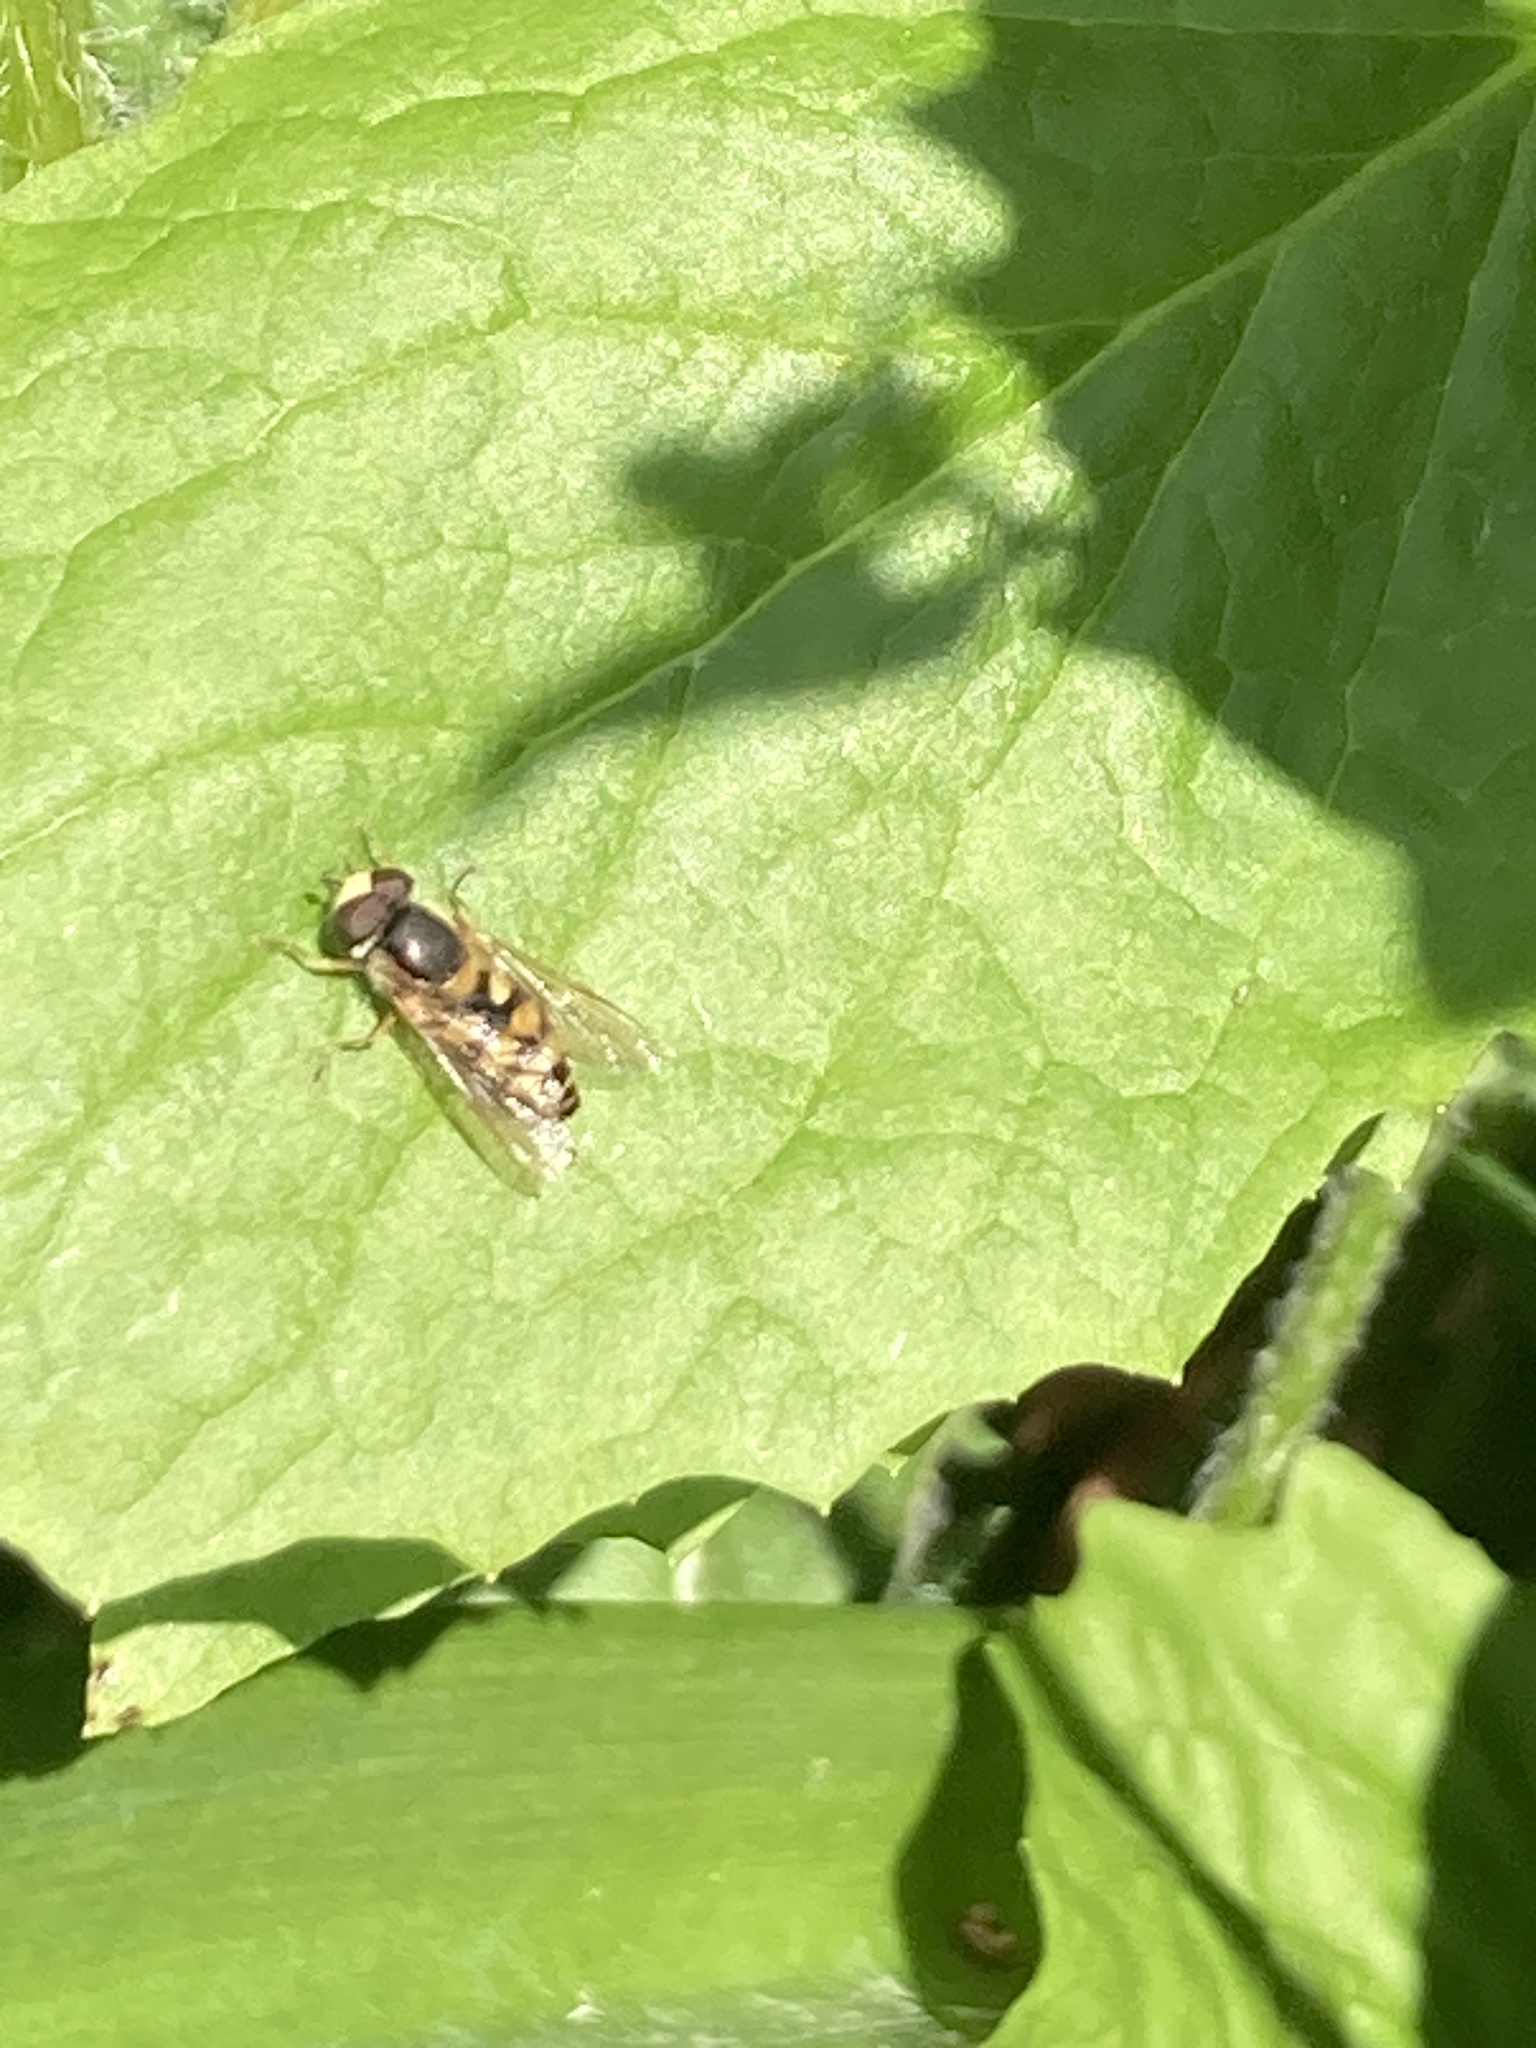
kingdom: Animalia
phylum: Arthropoda
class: Insecta
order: Diptera
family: Syrphidae
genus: Eupeodes
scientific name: Eupeodes corollae
